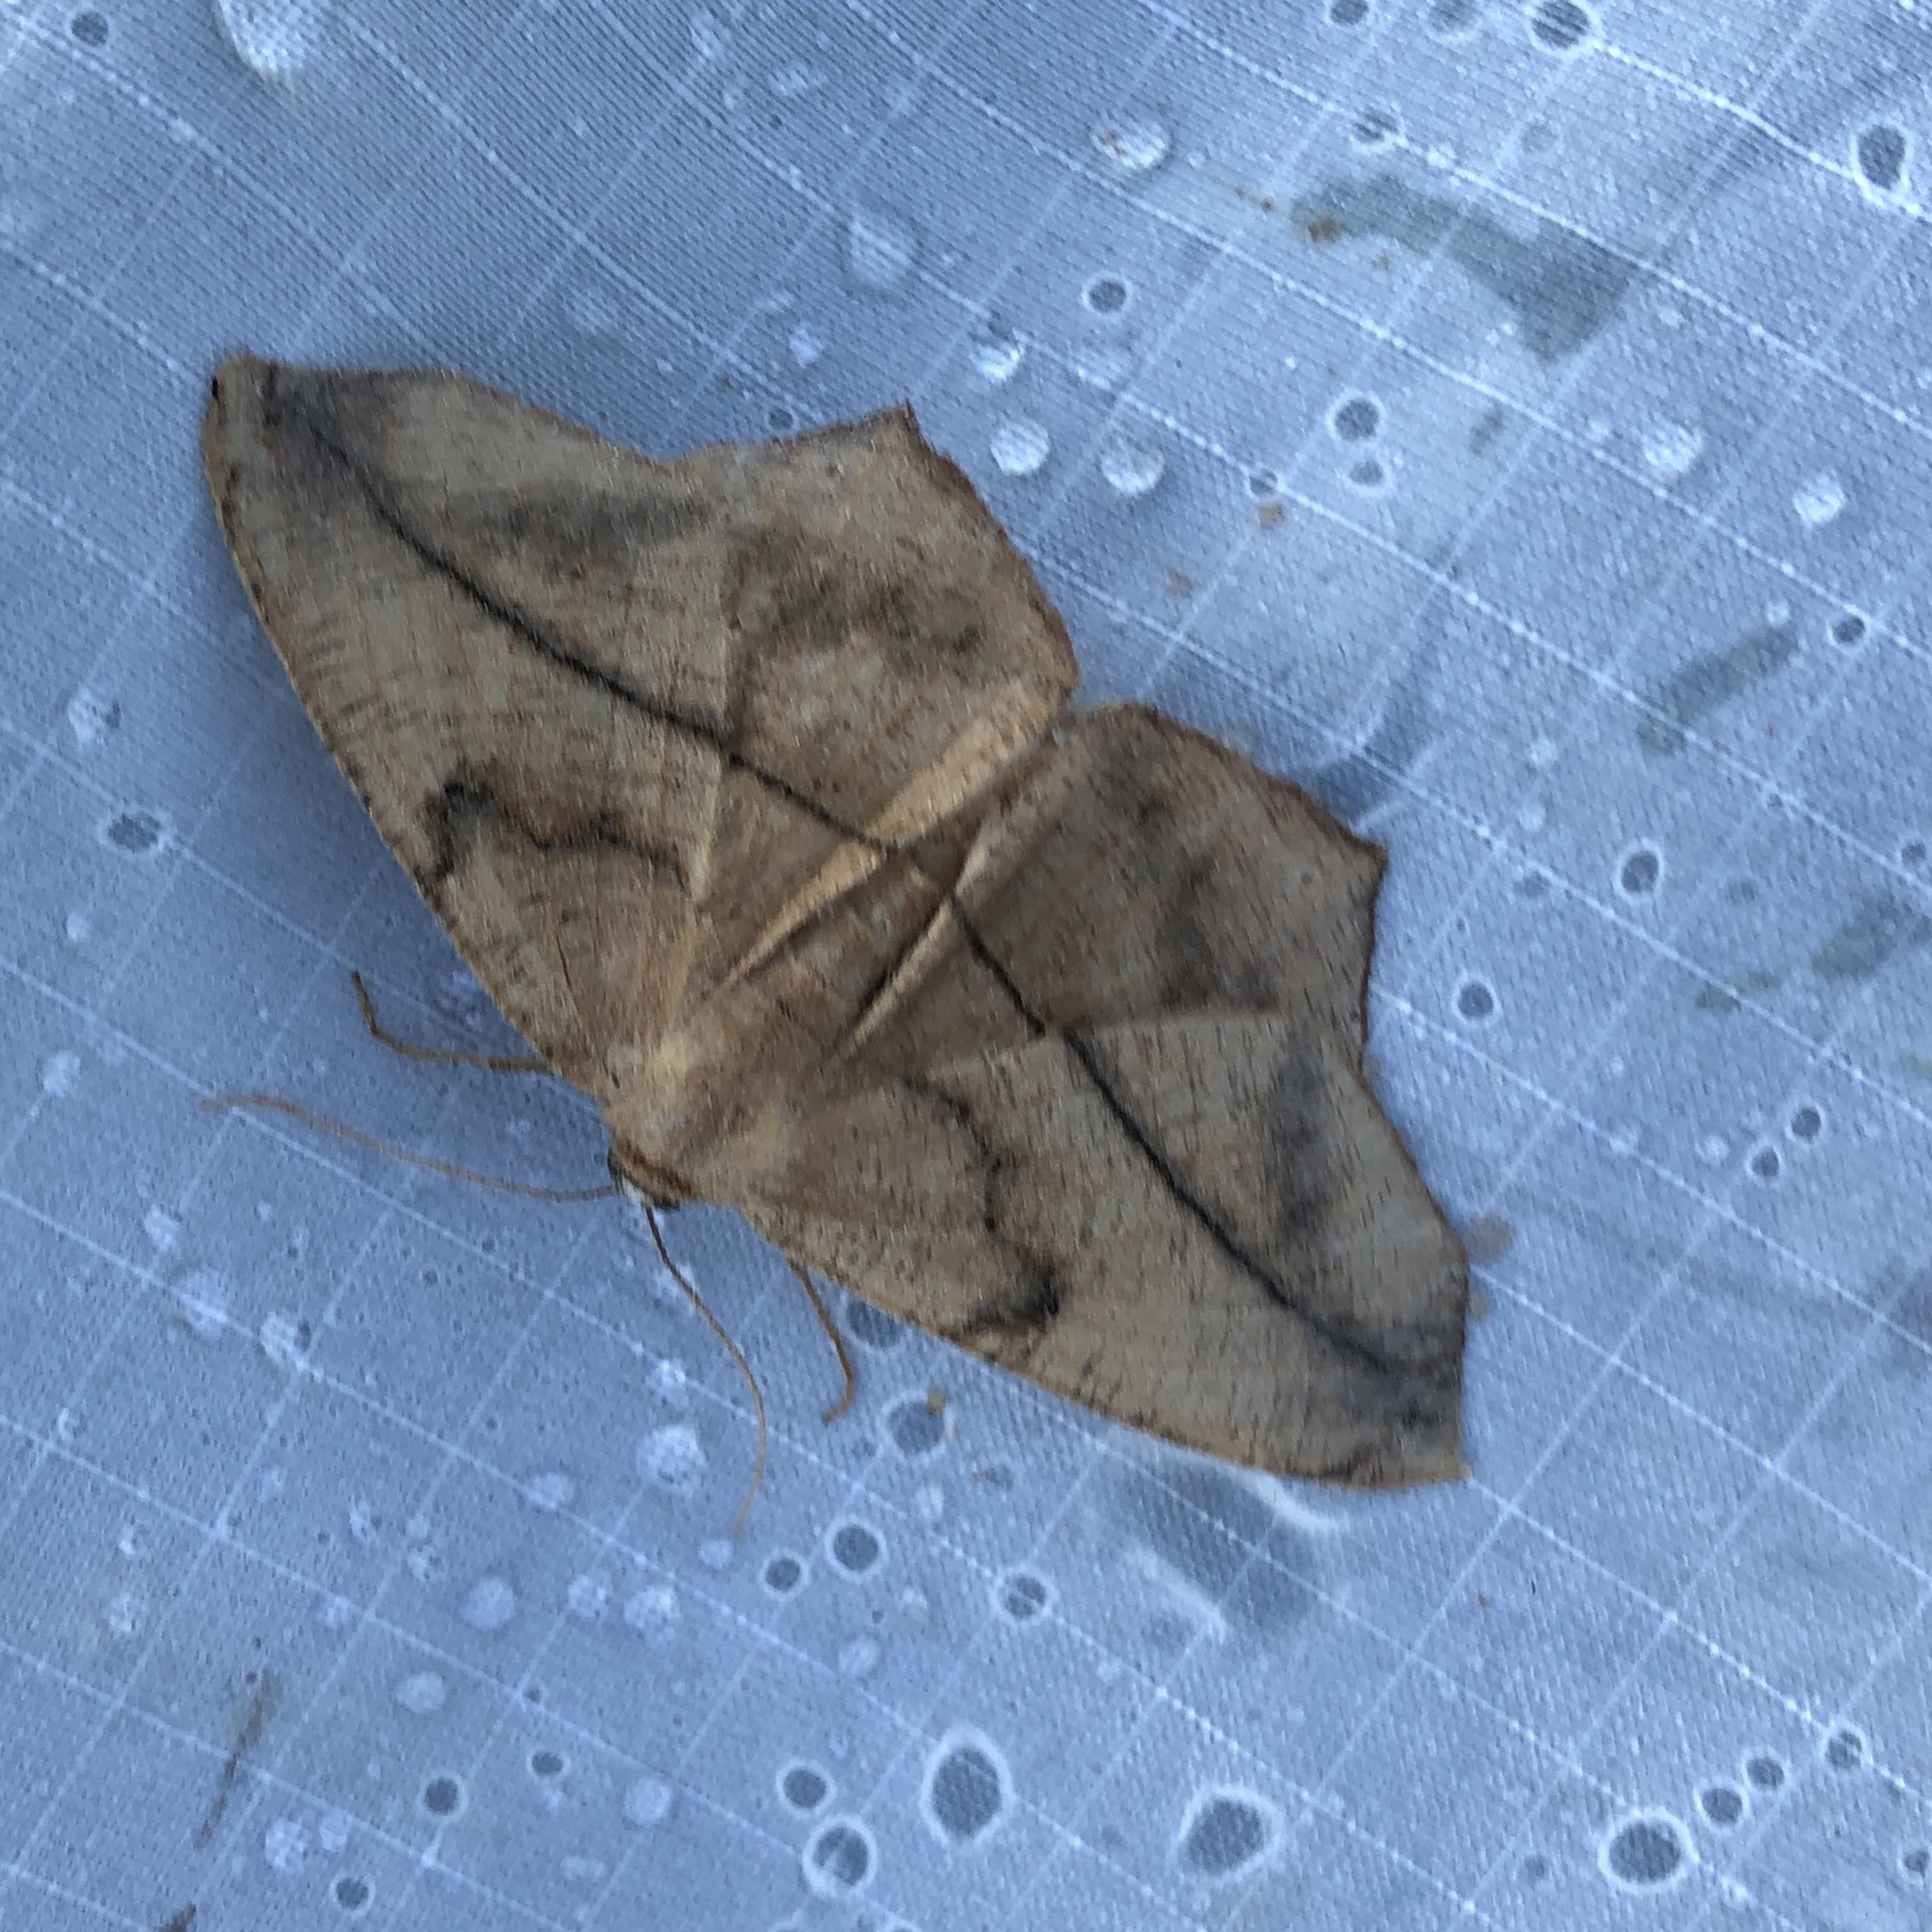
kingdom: Animalia
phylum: Arthropoda
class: Insecta
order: Lepidoptera
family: Geometridae
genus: Prochoerodes
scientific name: Prochoerodes lineola
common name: Large maple spanworm
